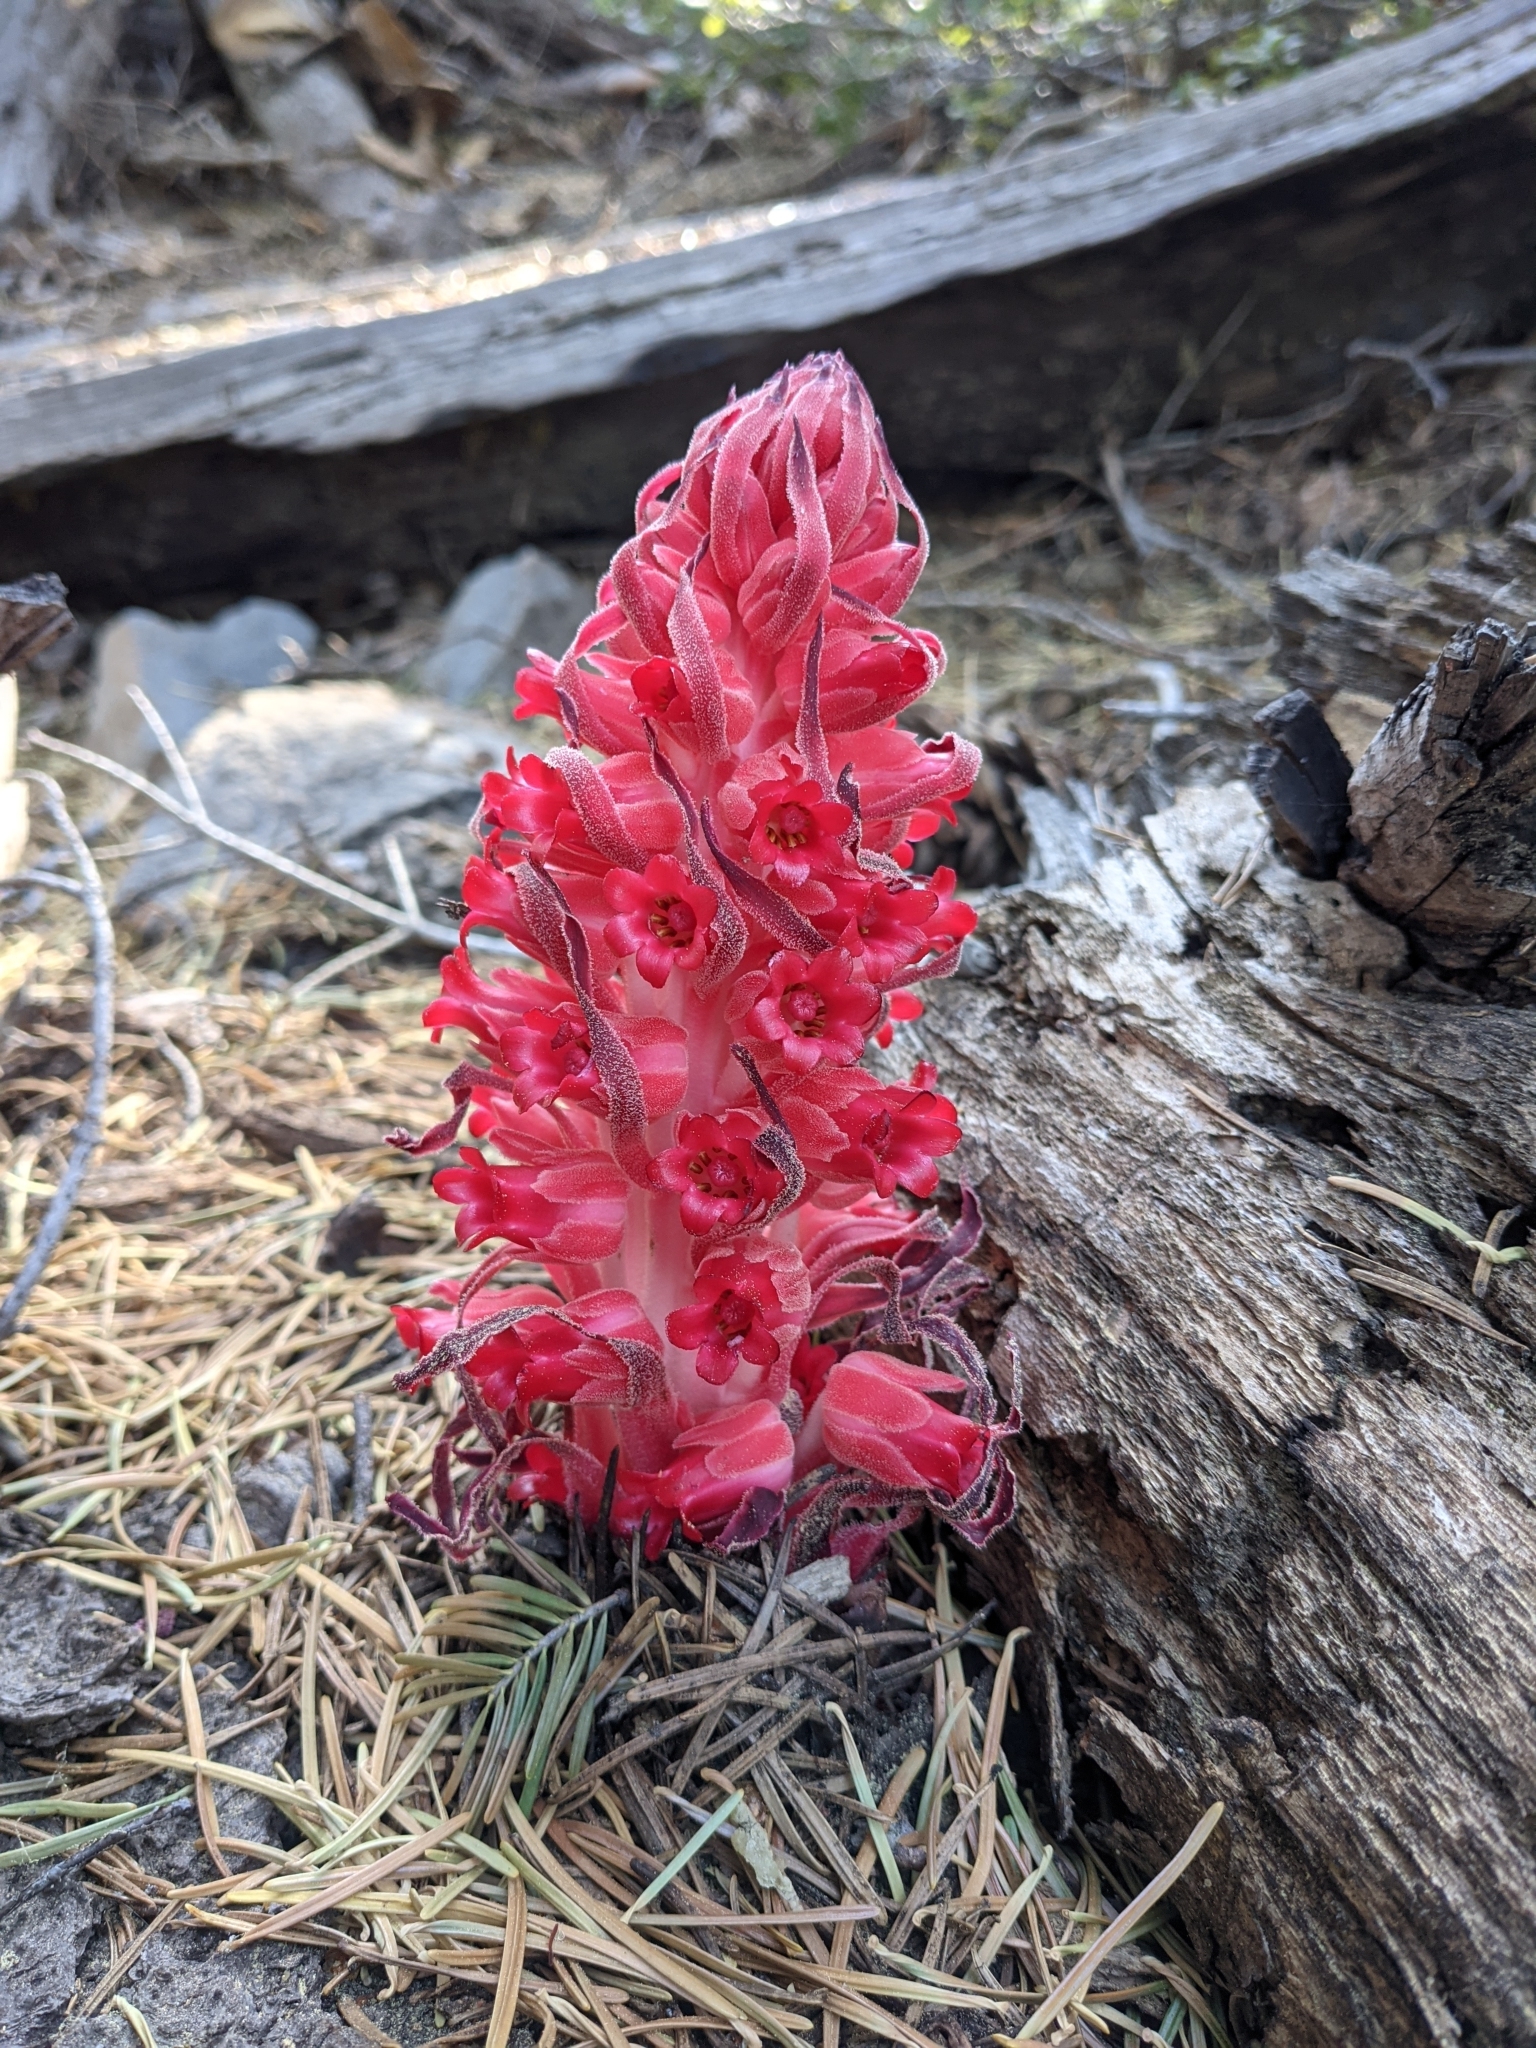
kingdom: Plantae
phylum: Tracheophyta
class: Magnoliopsida
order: Ericales
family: Ericaceae
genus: Sarcodes
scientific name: Sarcodes sanguinea
